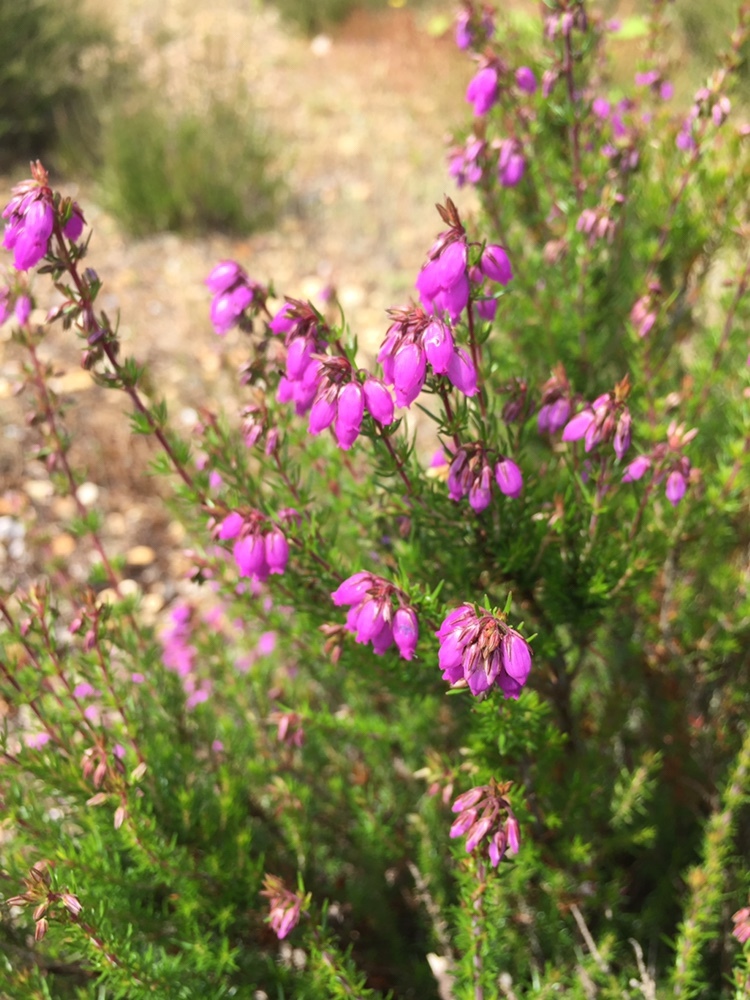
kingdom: Plantae
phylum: Tracheophyta
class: Magnoliopsida
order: Ericales
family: Ericaceae
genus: Erica
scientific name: Erica cinerea
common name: Bell heather
